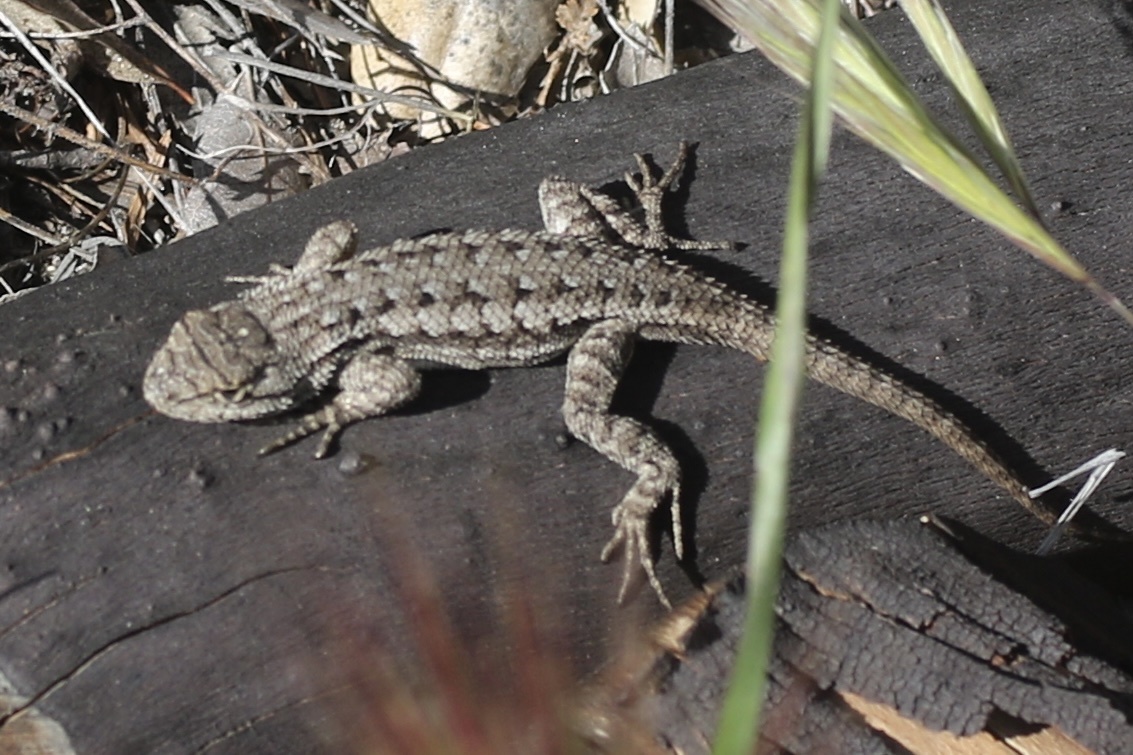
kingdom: Animalia
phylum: Chordata
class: Squamata
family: Phrynosomatidae
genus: Sceloporus
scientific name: Sceloporus occidentalis
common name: Western fence lizard
